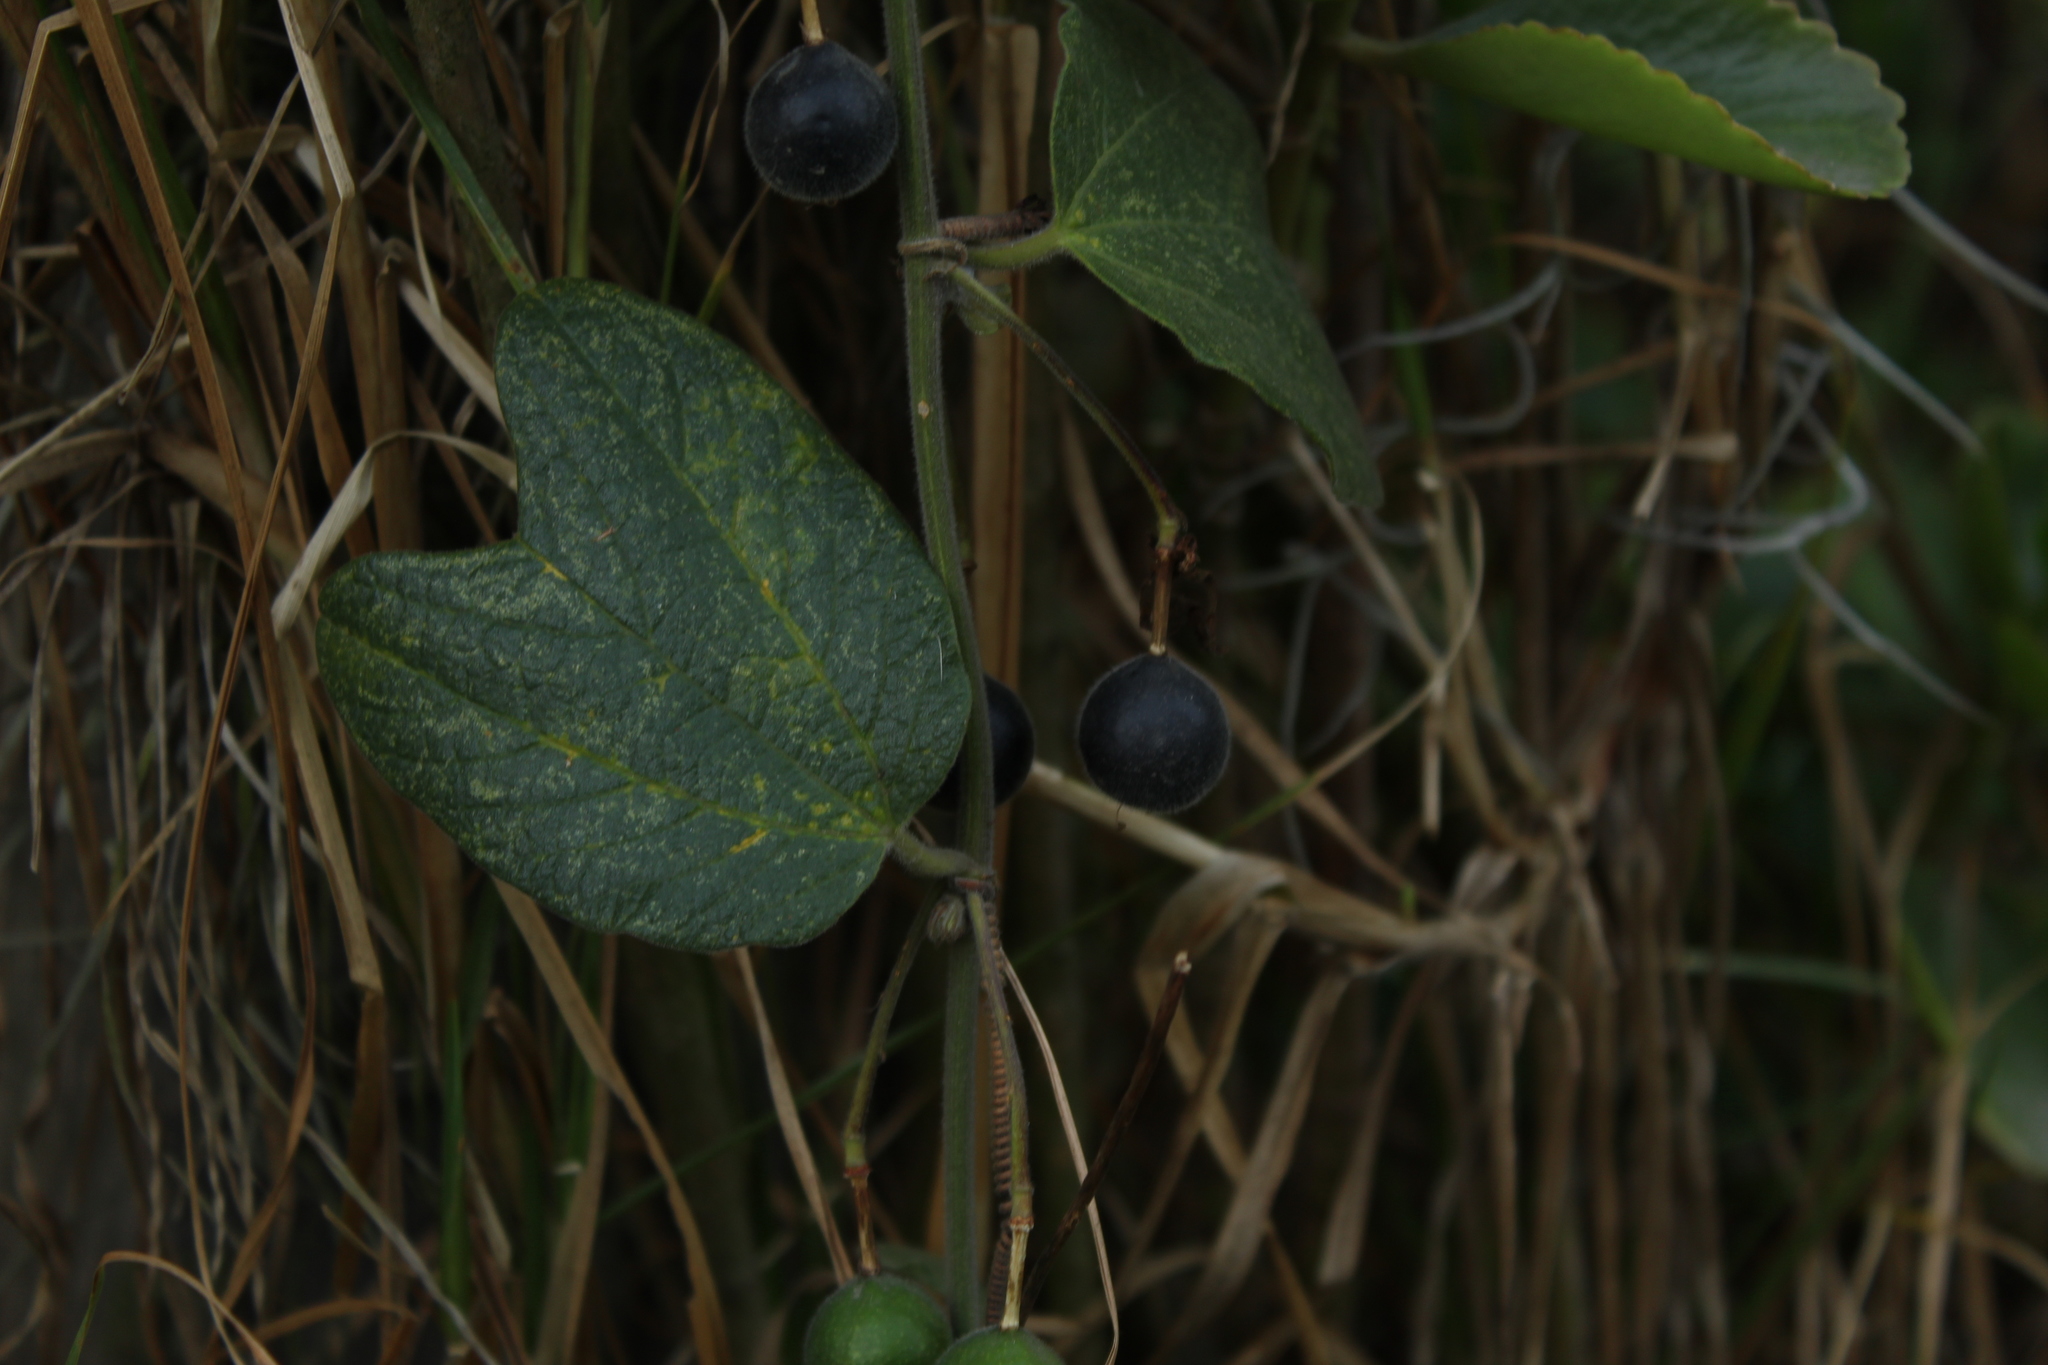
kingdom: Plantae
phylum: Tracheophyta
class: Magnoliopsida
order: Malpighiales
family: Passifloraceae
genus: Passiflora
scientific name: Passiflora bogotensis
